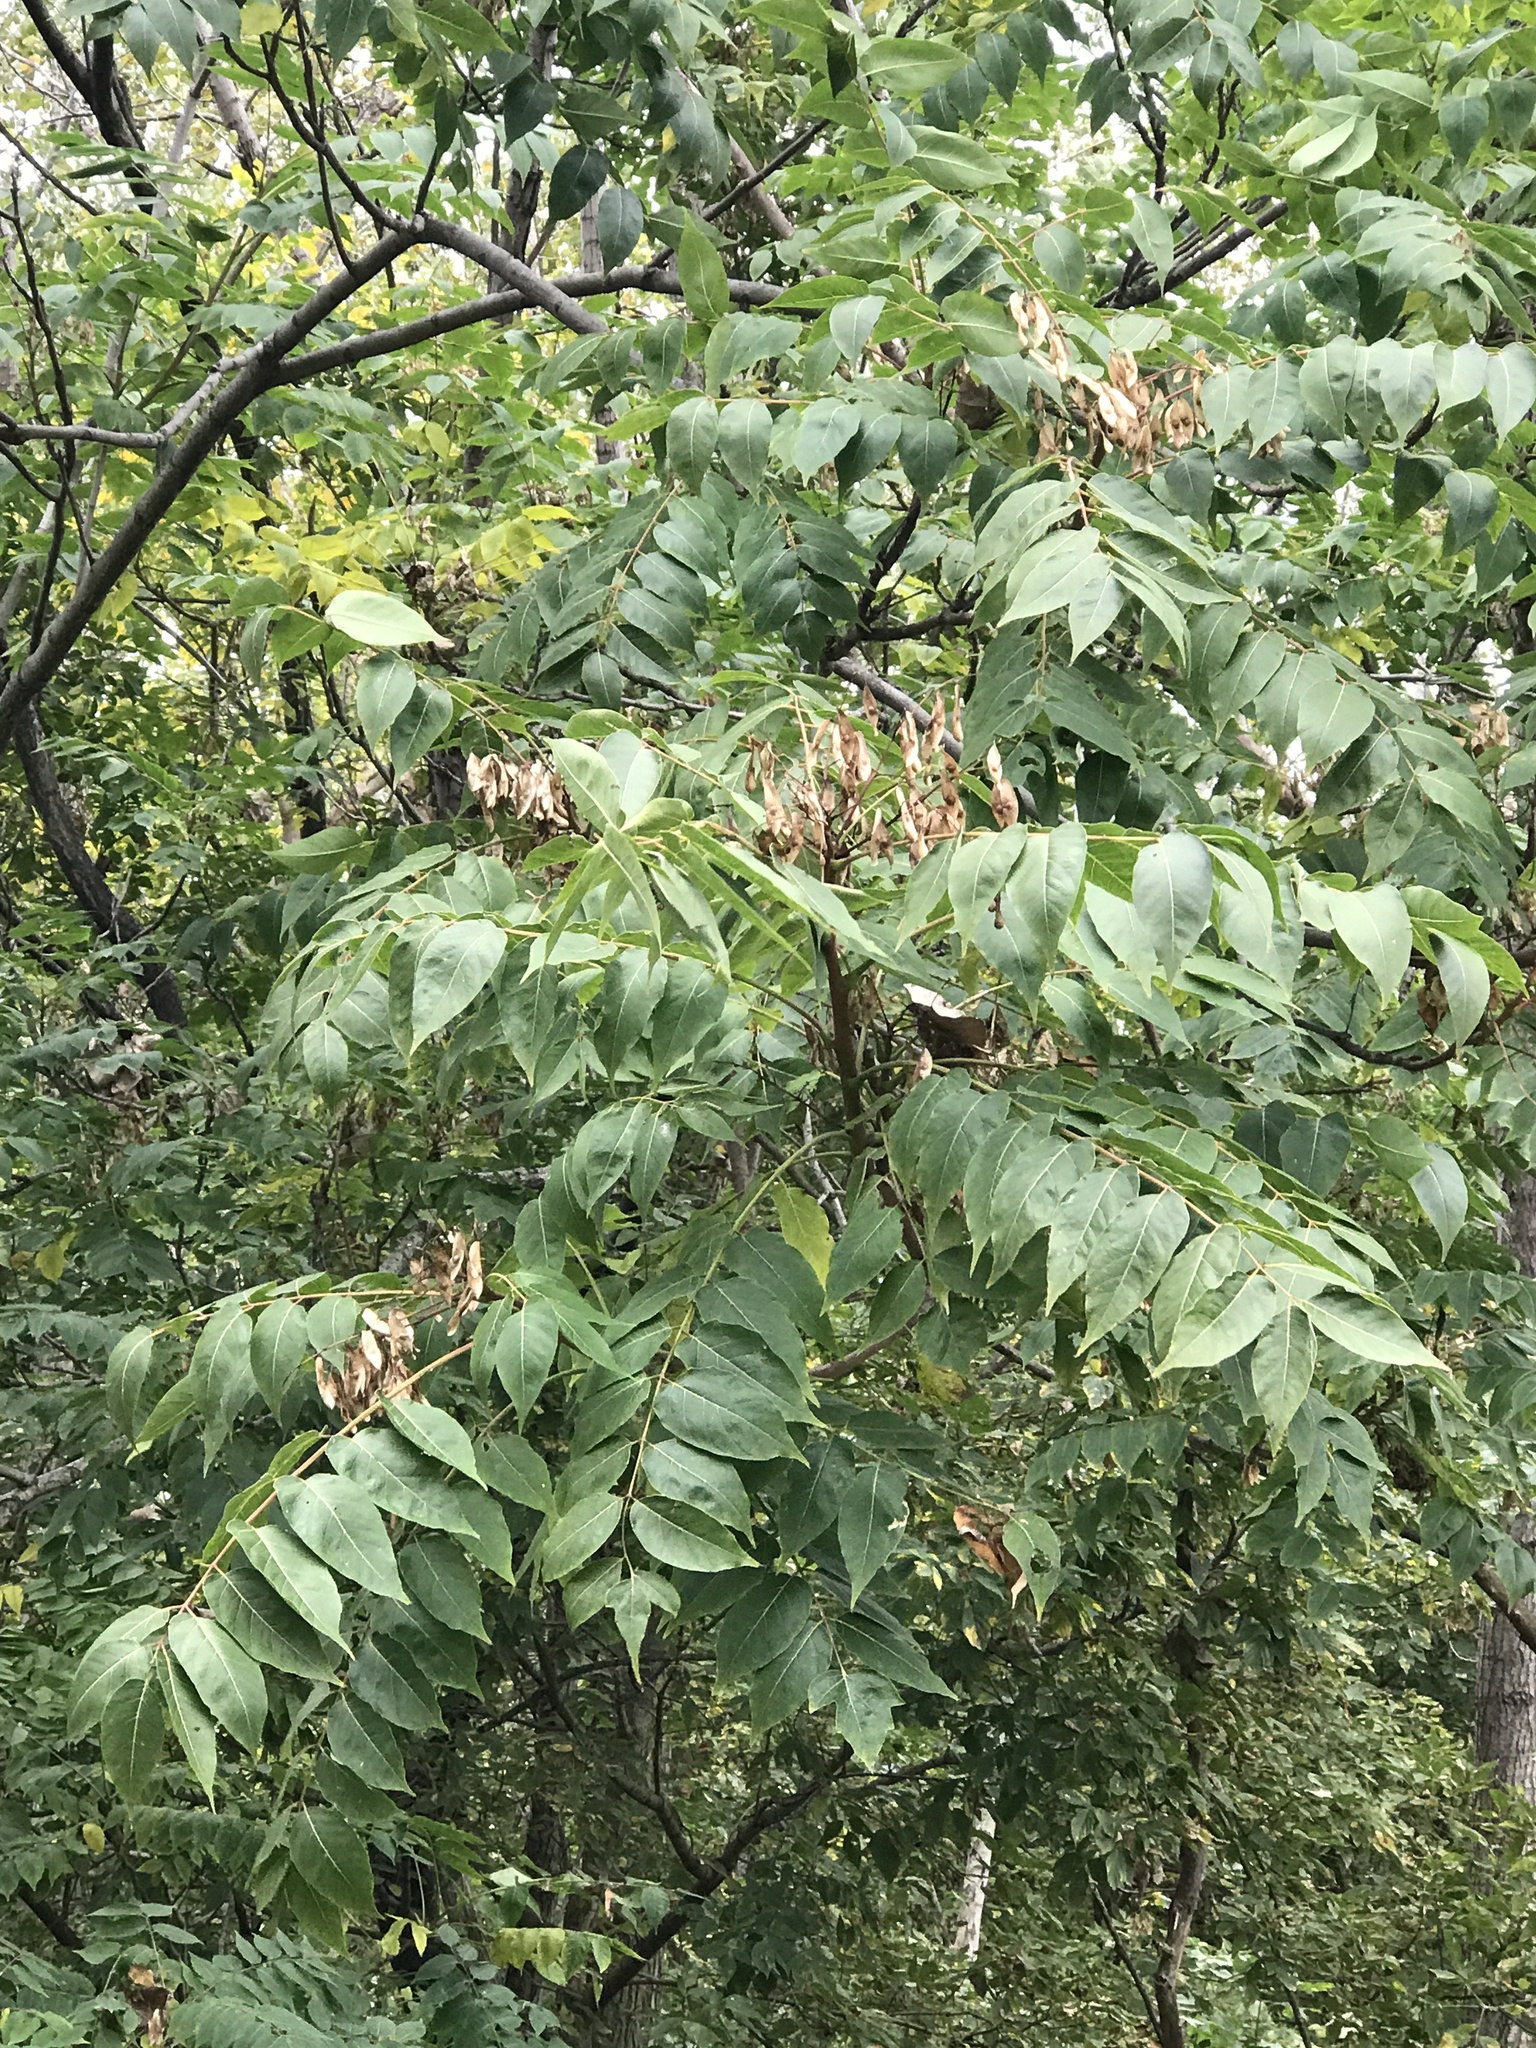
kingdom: Plantae
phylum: Tracheophyta
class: Magnoliopsida
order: Sapindales
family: Simaroubaceae
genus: Ailanthus
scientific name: Ailanthus altissima
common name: Tree-of-heaven
